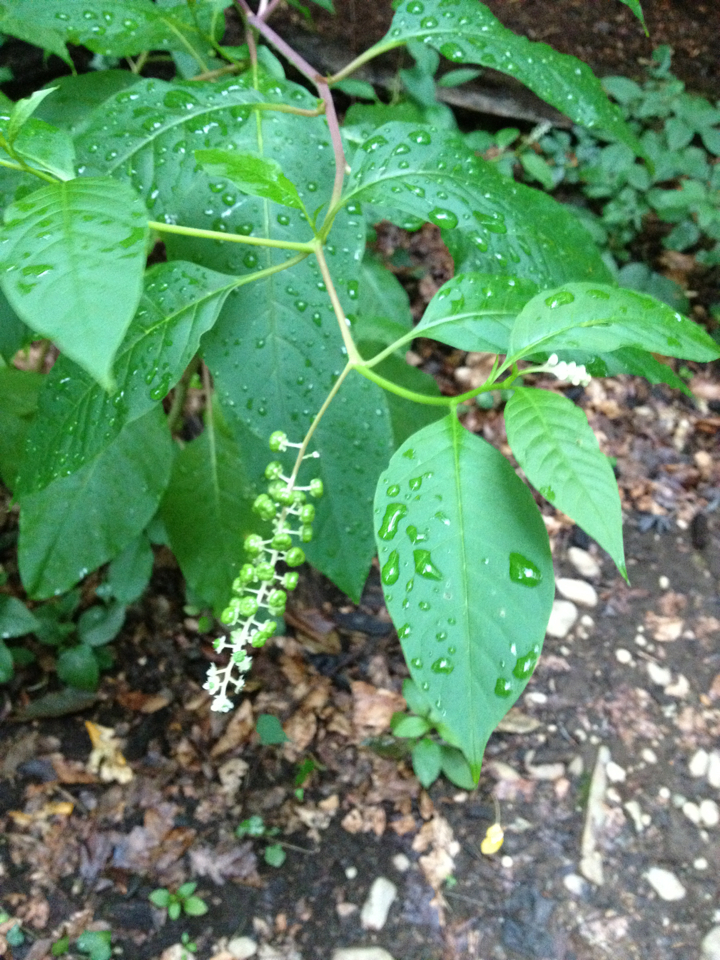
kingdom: Plantae
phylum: Tracheophyta
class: Magnoliopsida
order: Caryophyllales
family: Phytolaccaceae
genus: Phytolacca
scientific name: Phytolacca americana
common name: American pokeweed
